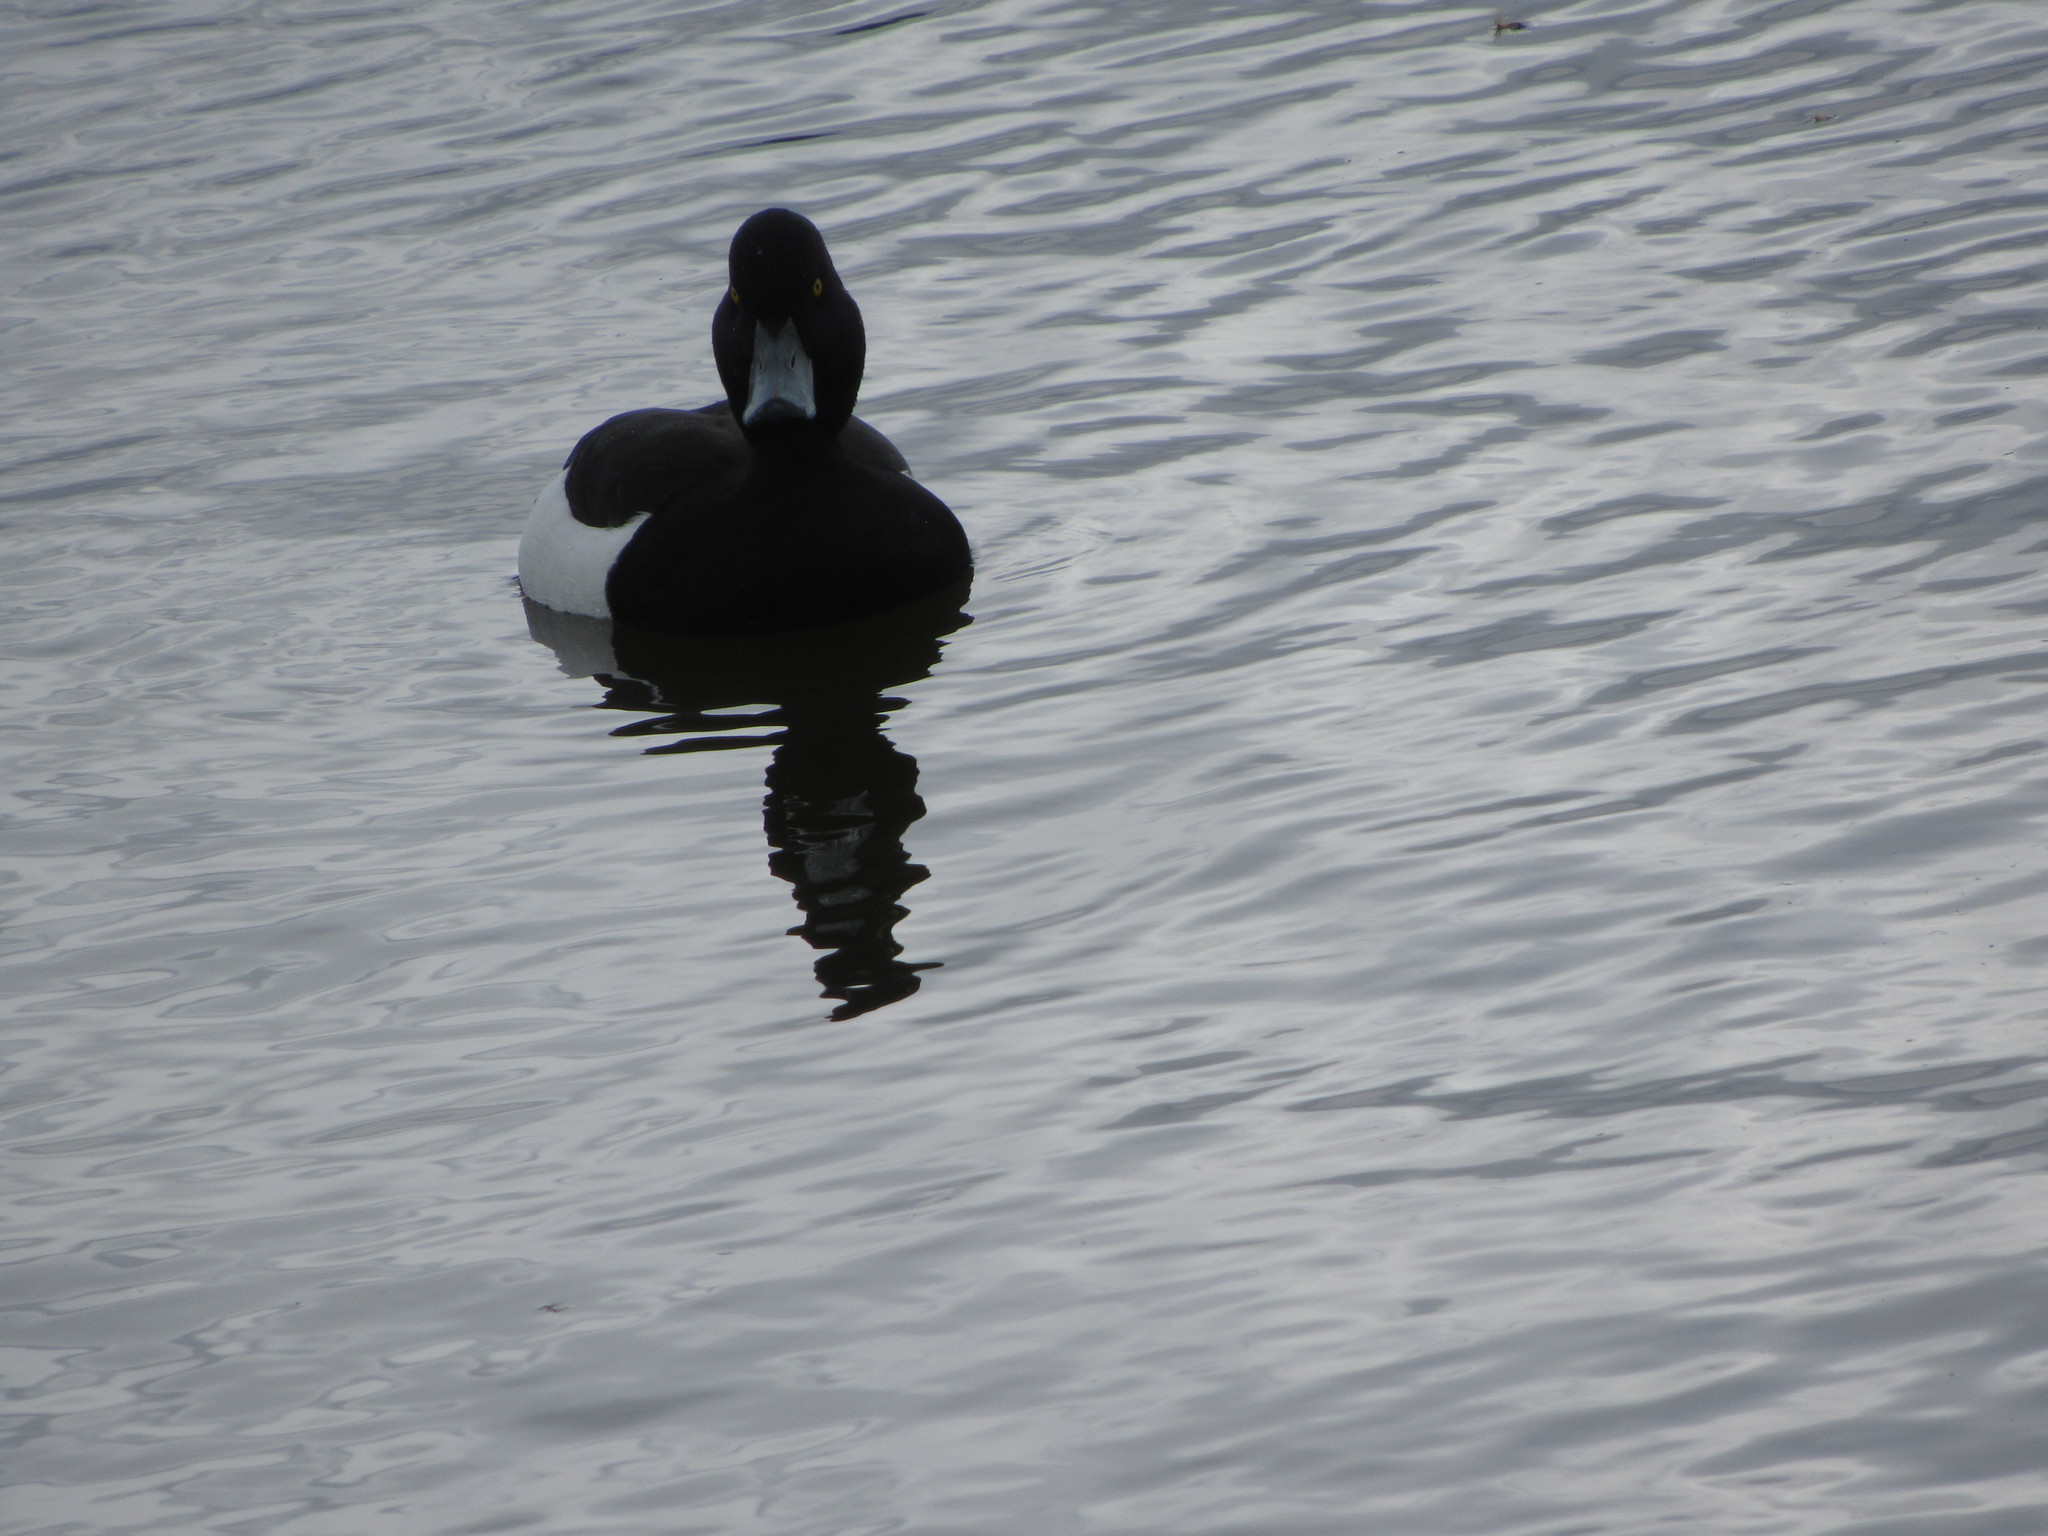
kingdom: Animalia
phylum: Chordata
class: Aves
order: Anseriformes
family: Anatidae
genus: Aythya
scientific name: Aythya fuligula
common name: Tufted duck
